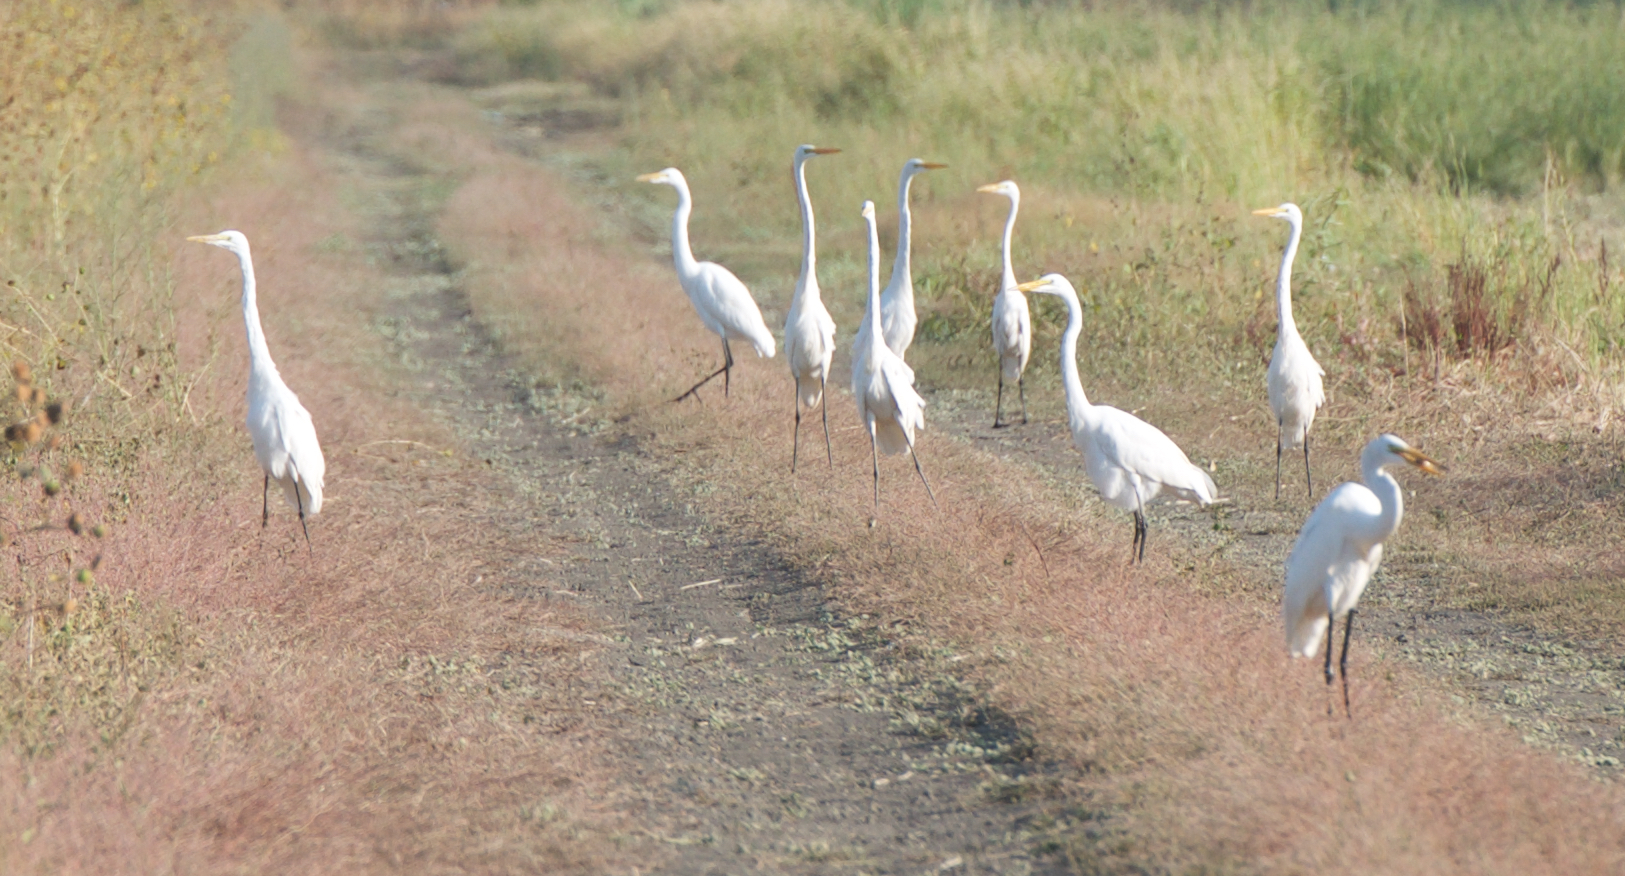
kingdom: Animalia
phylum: Chordata
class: Aves
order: Pelecaniformes
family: Ardeidae
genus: Ardea
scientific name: Ardea alba
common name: Great egret
